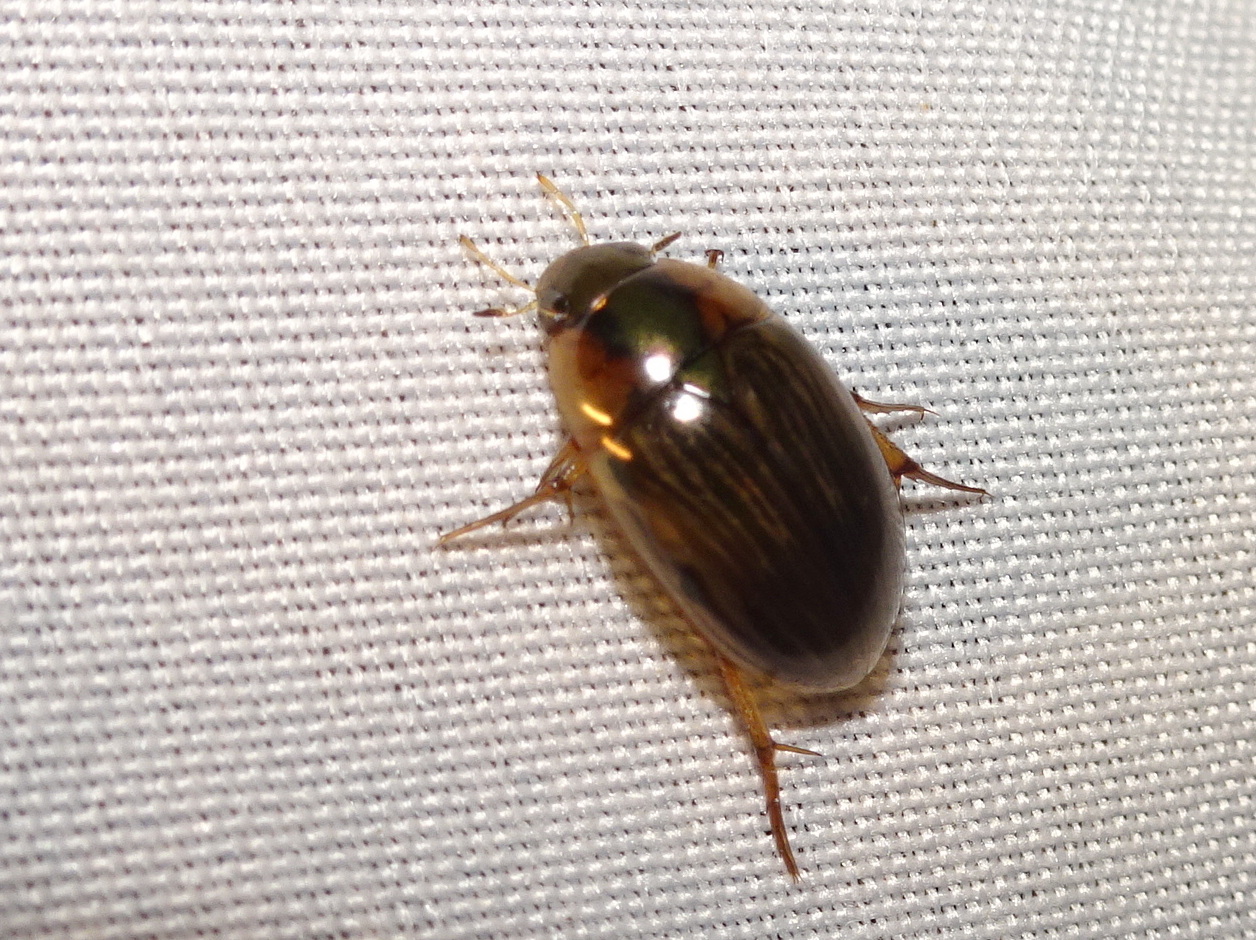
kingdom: Animalia
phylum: Arthropoda
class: Insecta
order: Coleoptera
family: Hydrophilidae
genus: Tropisternus
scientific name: Tropisternus collaris
